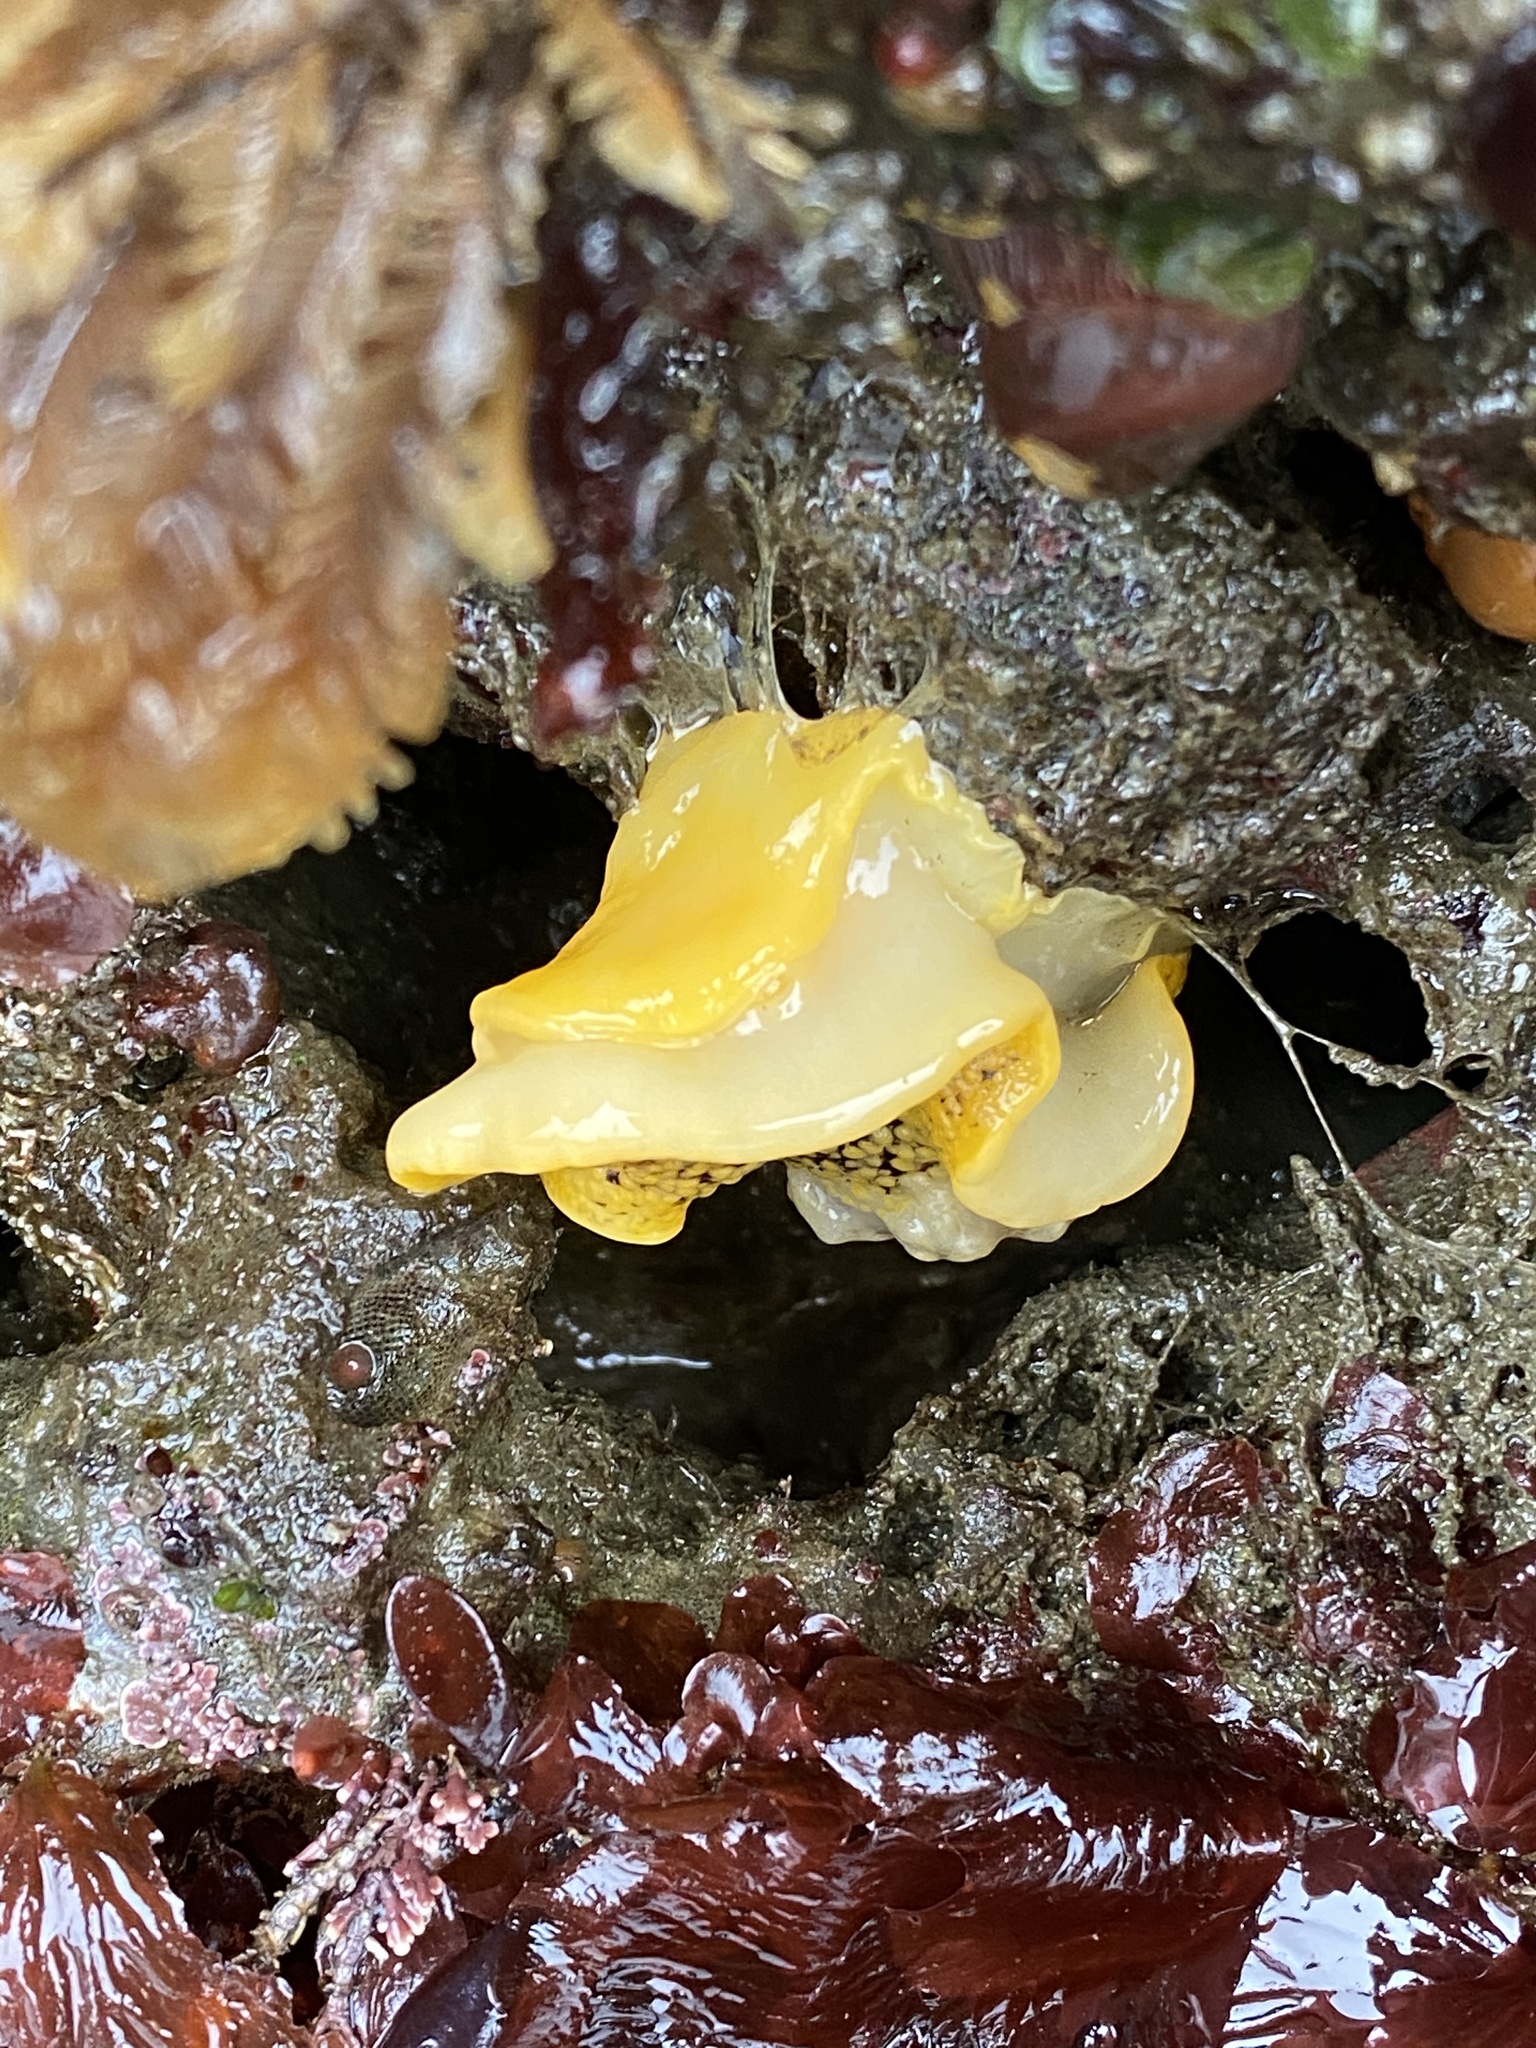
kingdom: Animalia
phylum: Mollusca
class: Gastropoda
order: Nudibranchia
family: Discodorididae
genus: Peltodoris
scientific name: Peltodoris nobilis
